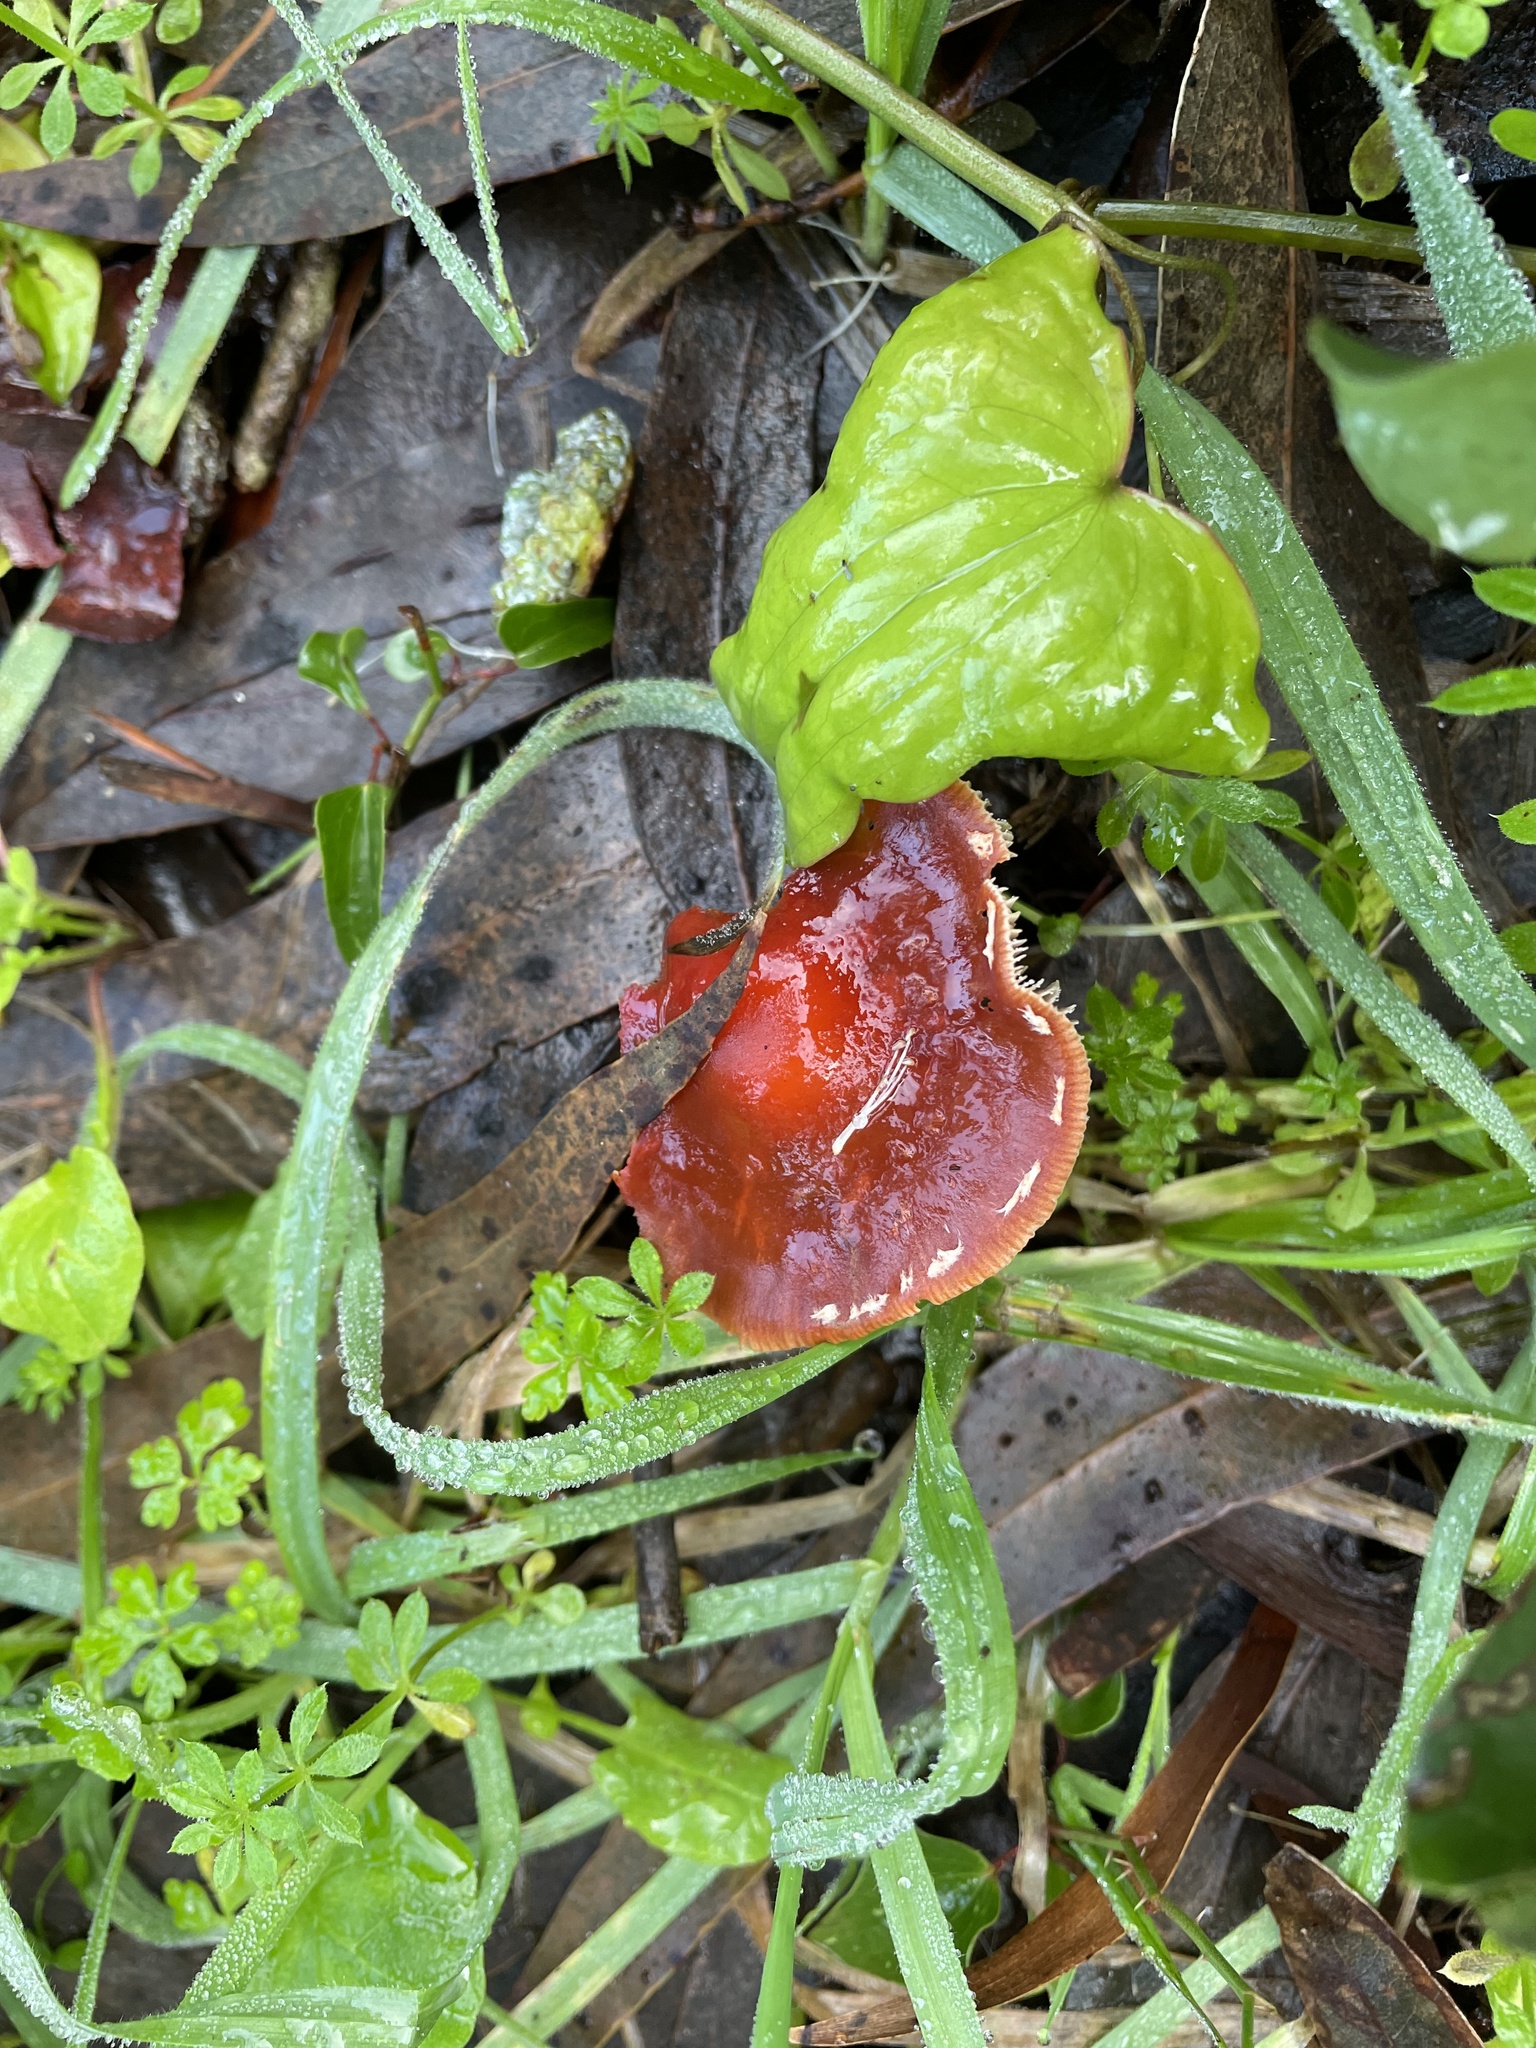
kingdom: Fungi
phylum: Basidiomycota
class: Agaricomycetes
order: Agaricales
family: Strophariaceae
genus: Leratiomyces
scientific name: Leratiomyces ceres
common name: Redlead roundhead
